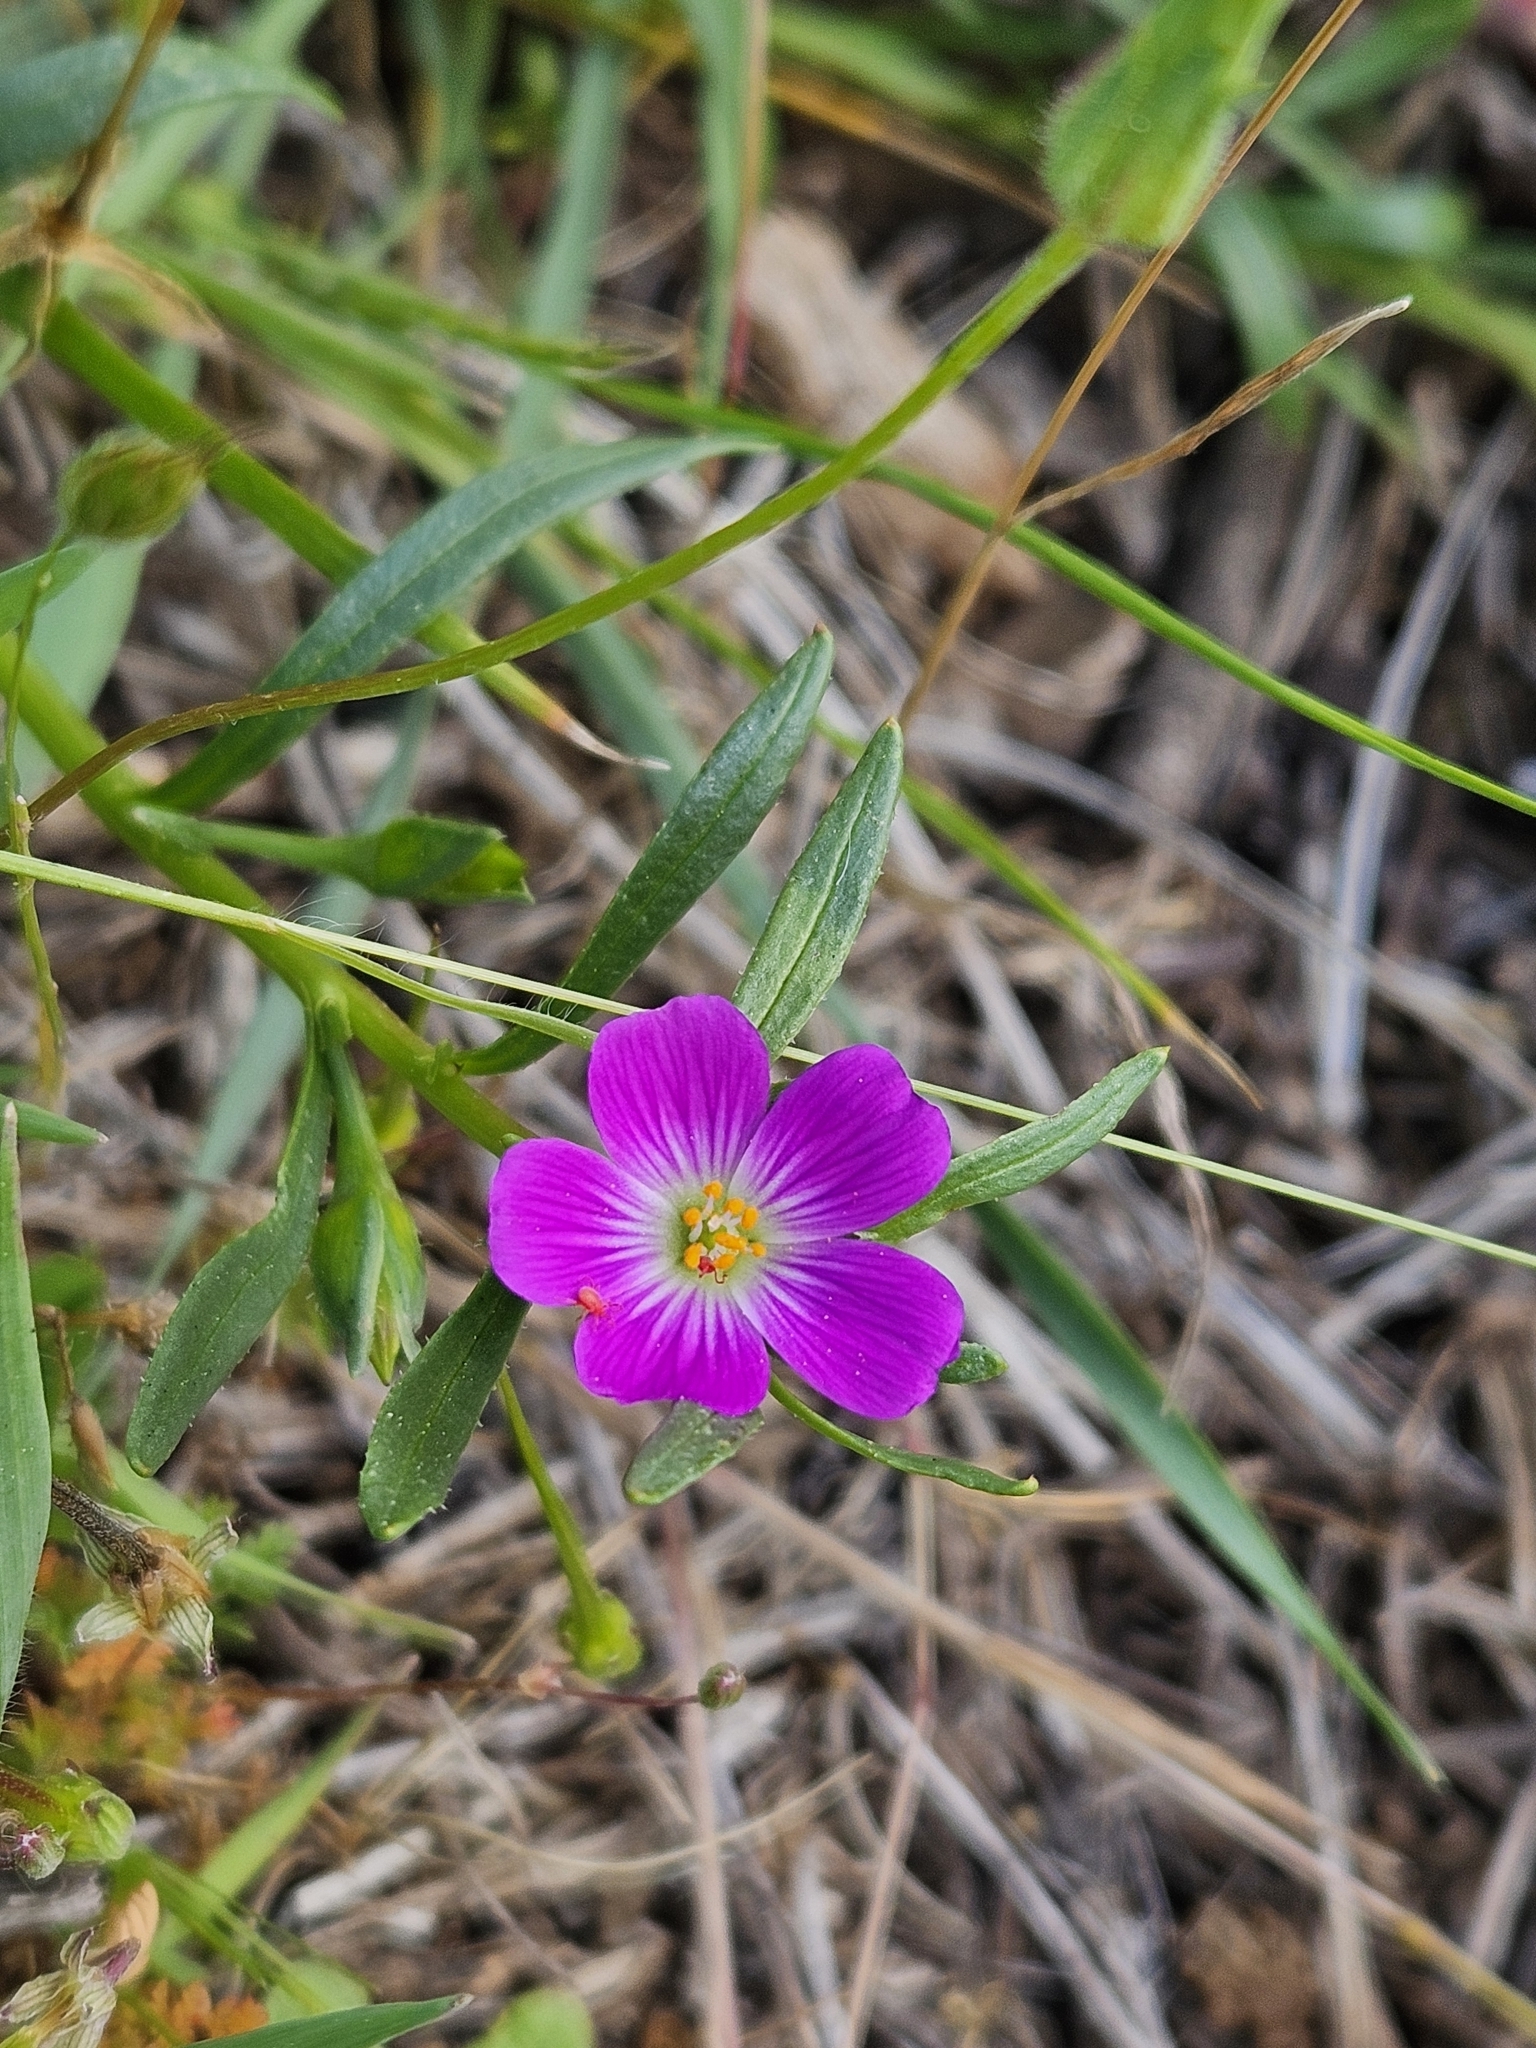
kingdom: Plantae
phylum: Tracheophyta
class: Magnoliopsida
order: Caryophyllales
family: Montiaceae
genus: Calandrinia
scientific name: Calandrinia menziesii
